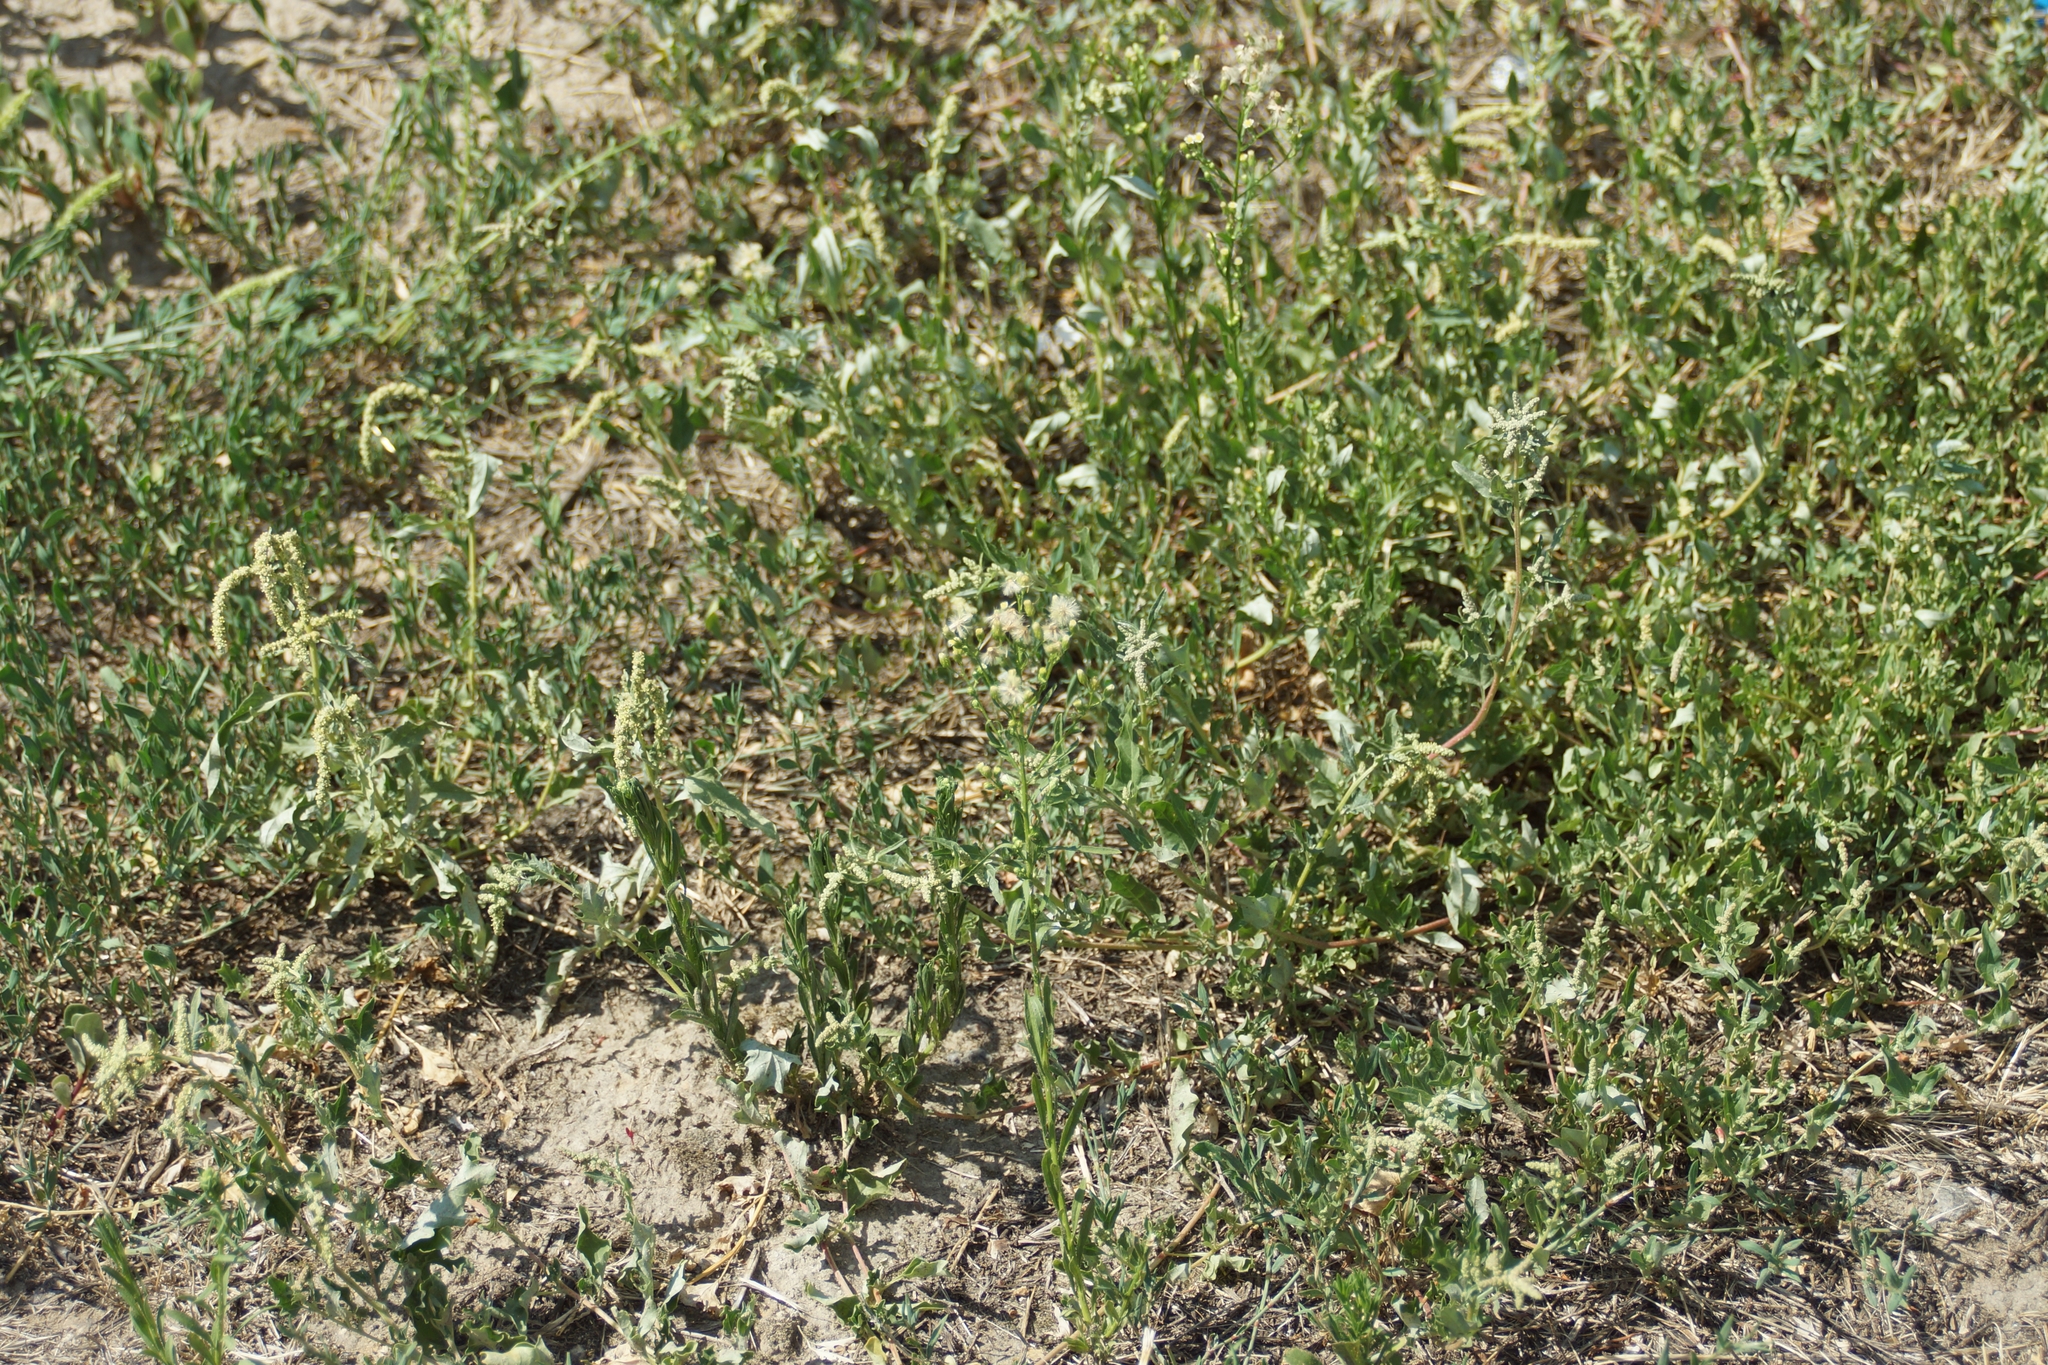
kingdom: Plantae
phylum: Tracheophyta
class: Magnoliopsida
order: Asterales
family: Asteraceae
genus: Erigeron
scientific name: Erigeron canadensis
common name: Canadian fleabane
